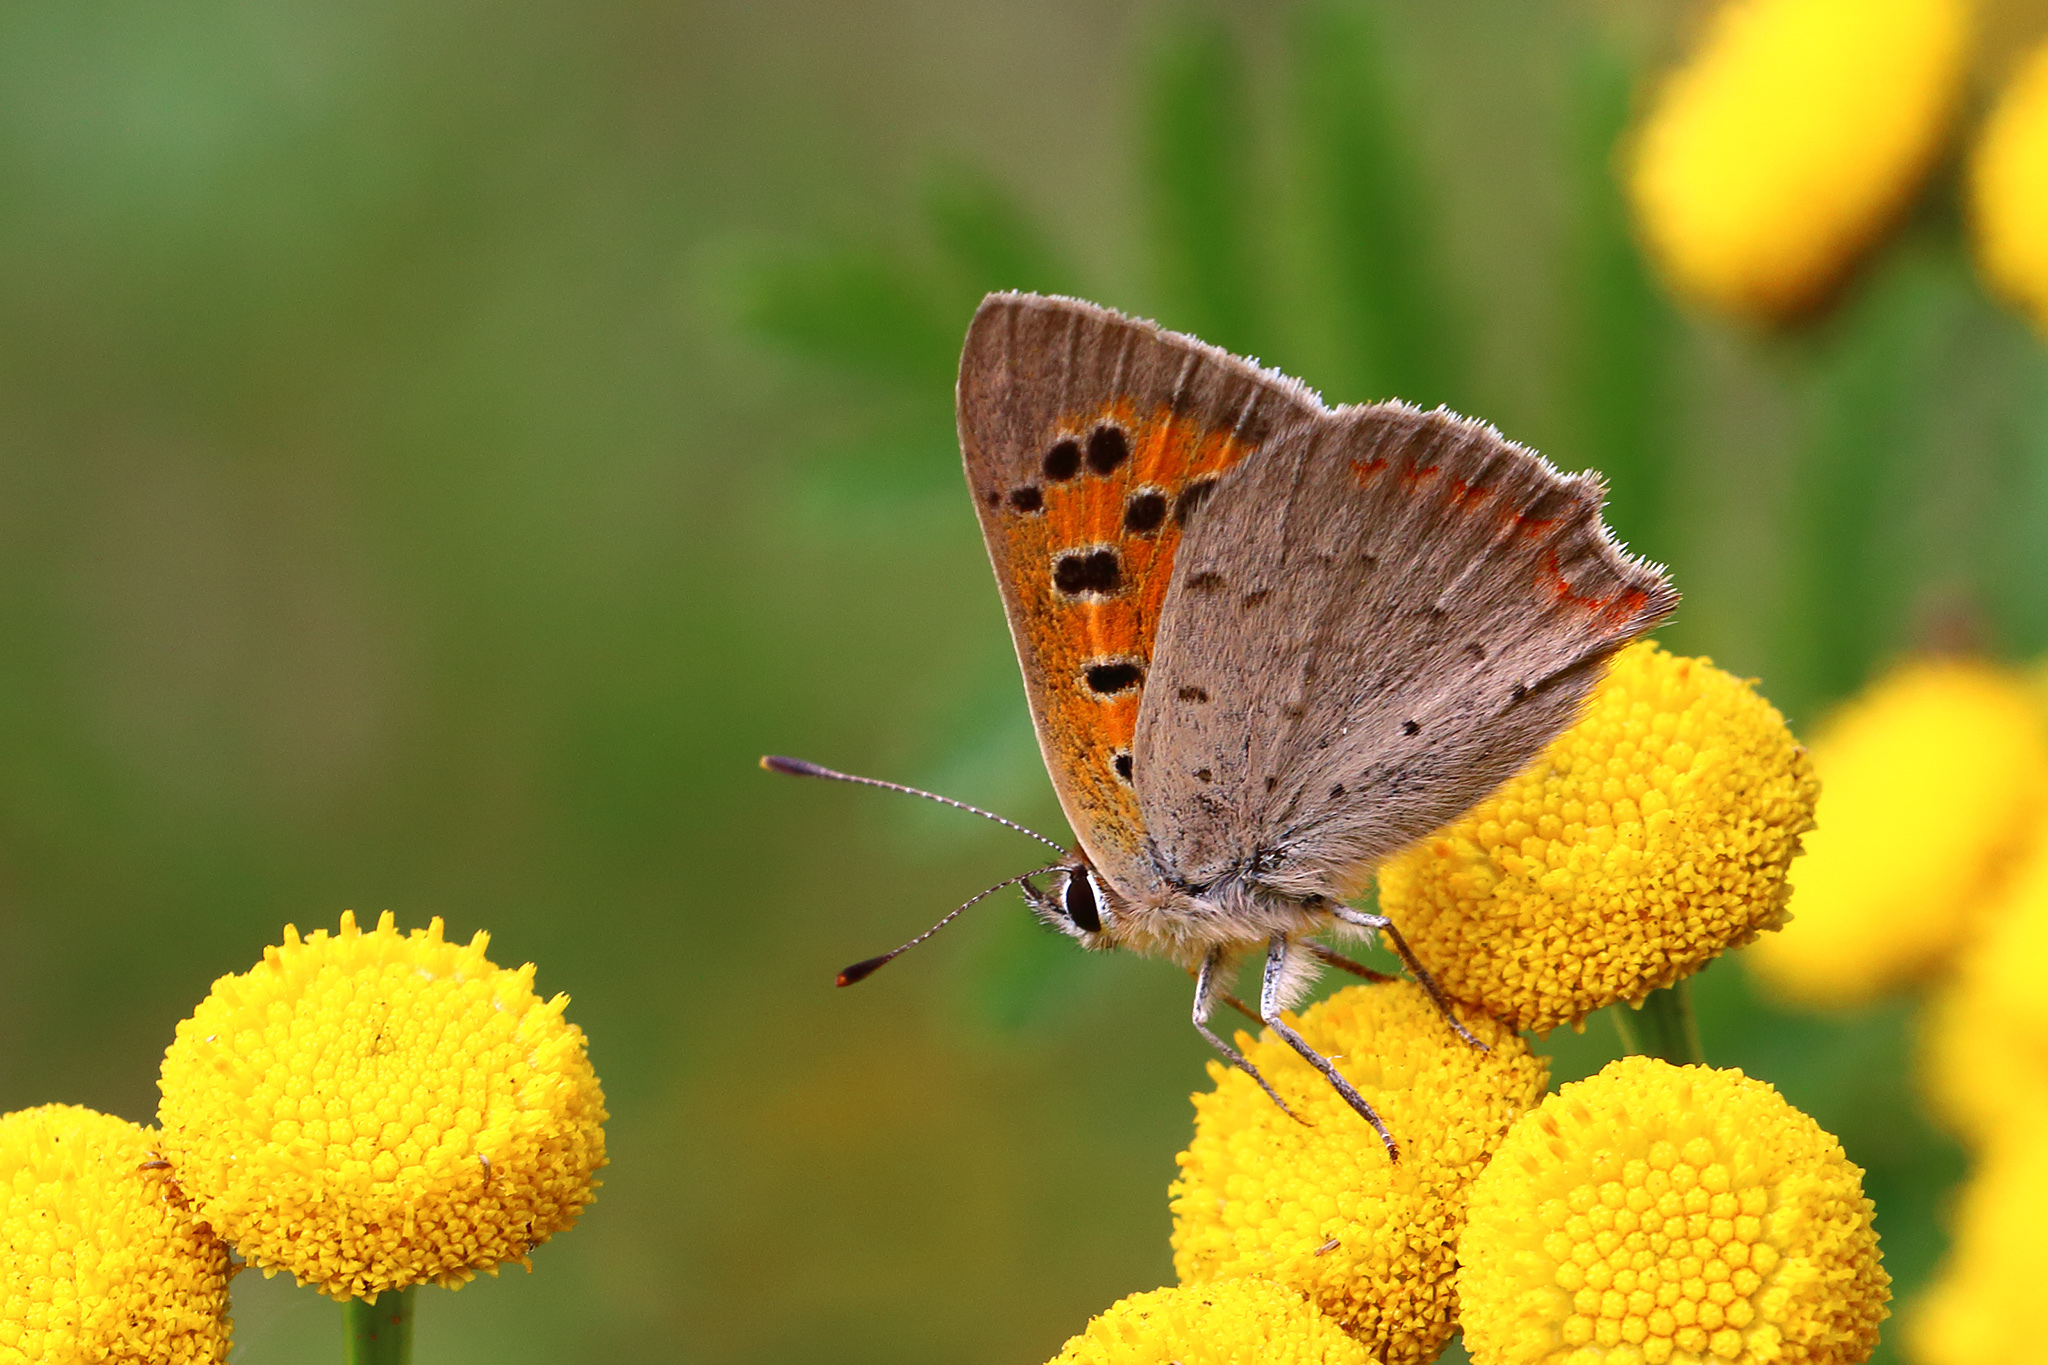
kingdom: Animalia
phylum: Arthropoda
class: Insecta
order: Lepidoptera
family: Lycaenidae
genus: Lycaena
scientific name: Lycaena phlaeas
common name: Small copper
